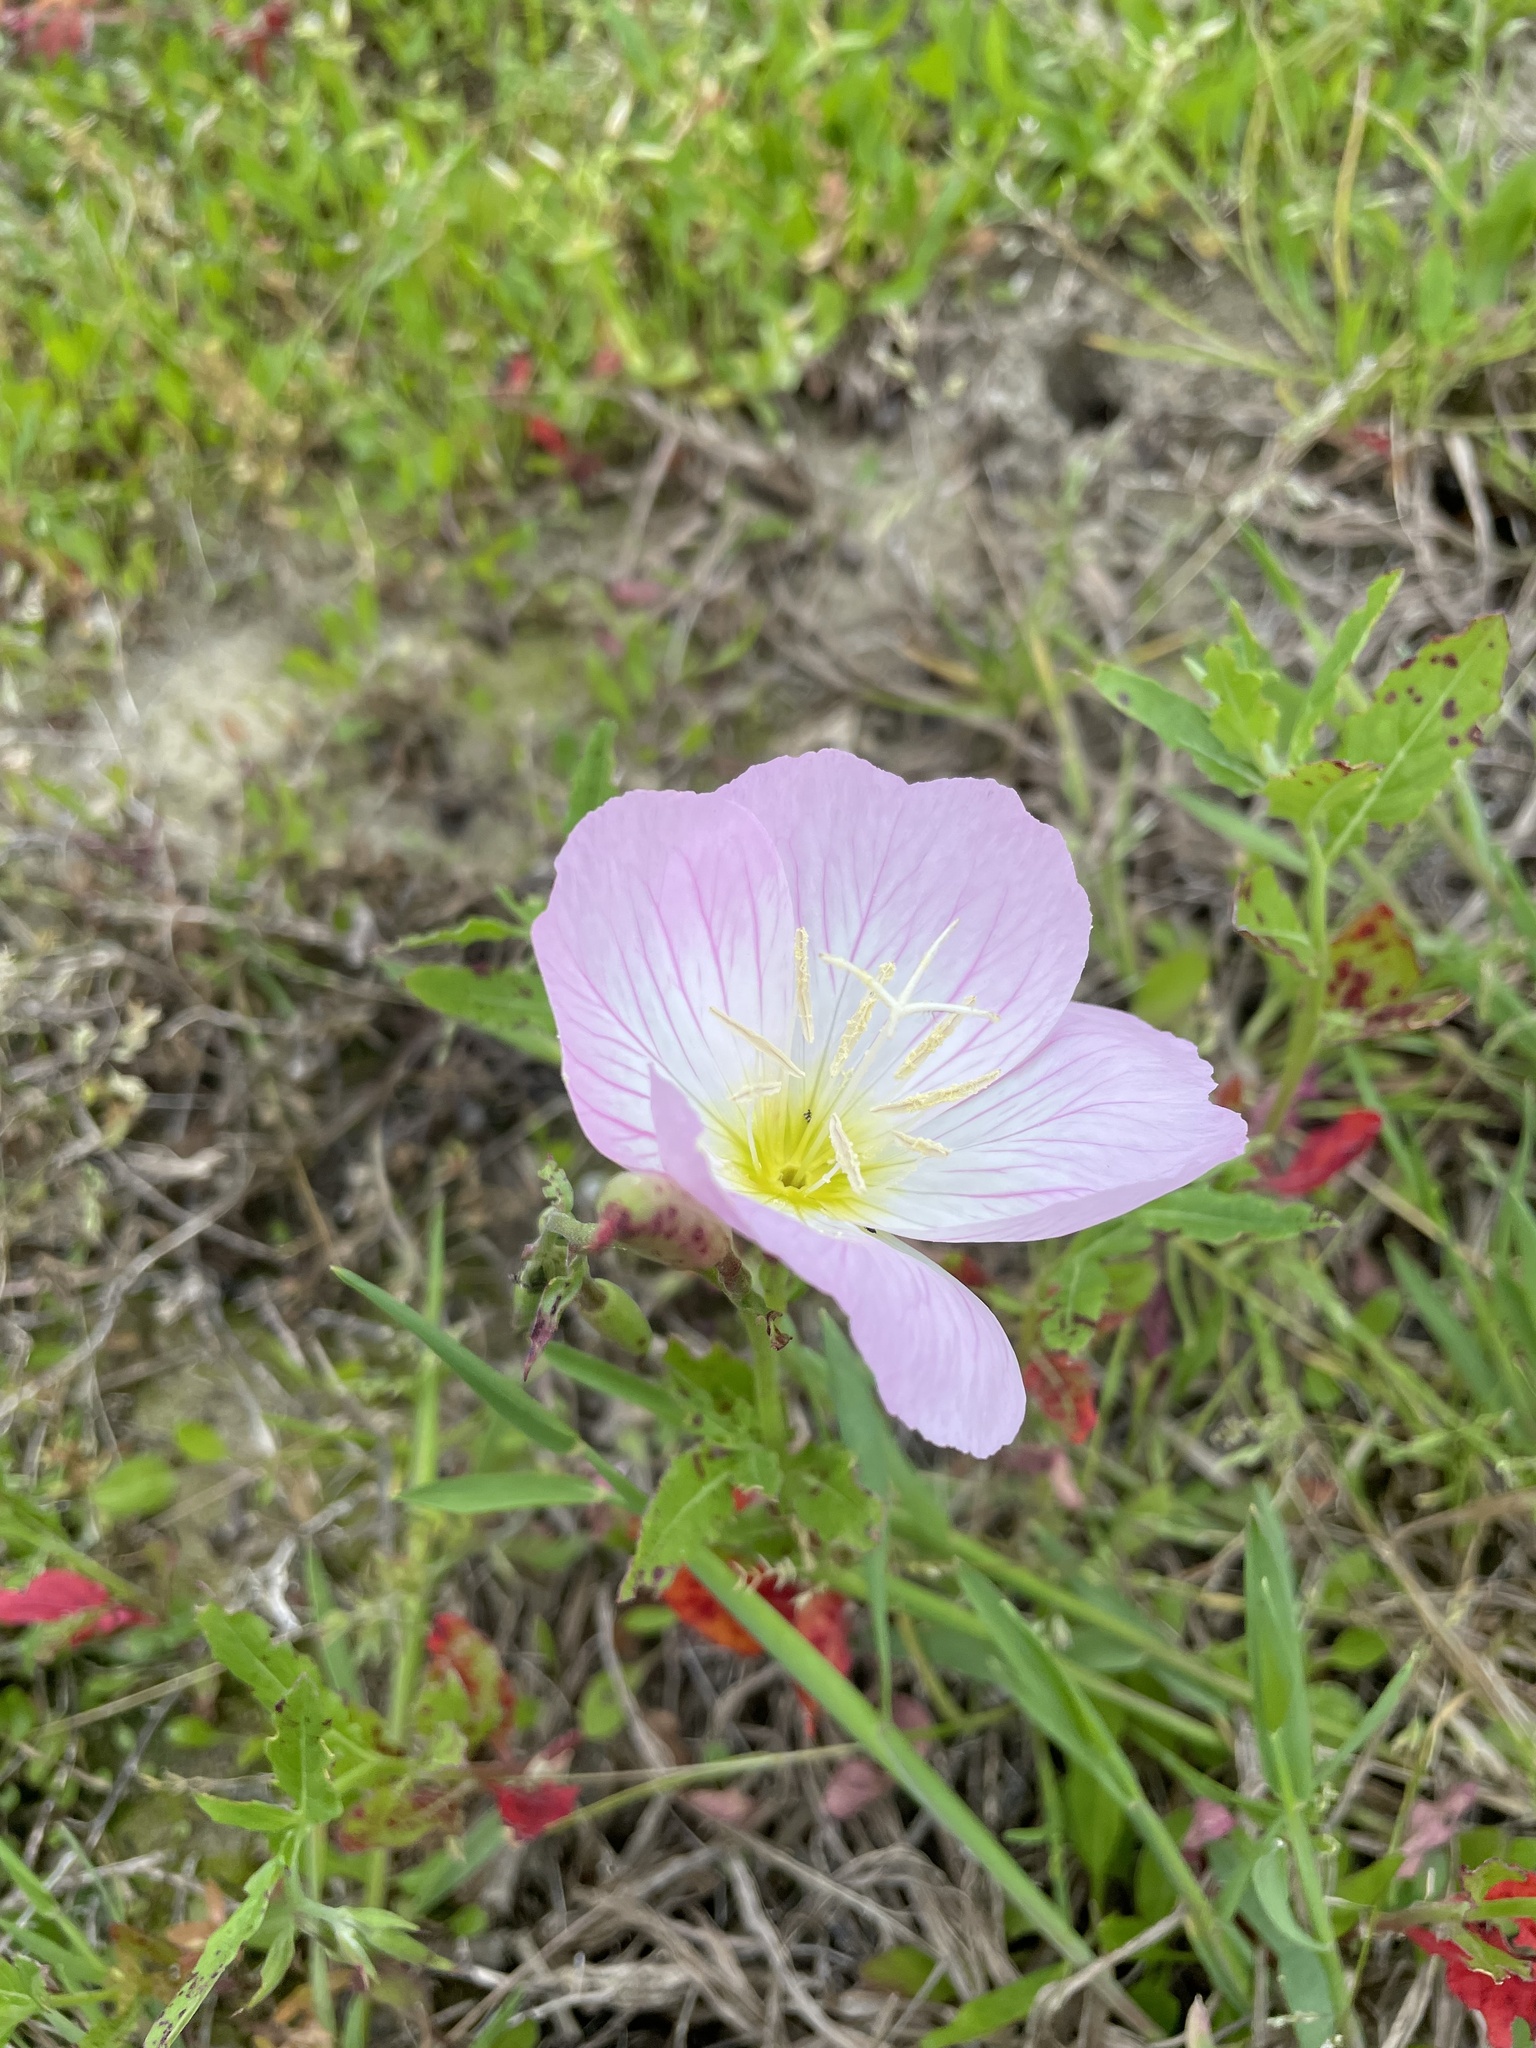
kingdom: Plantae
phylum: Tracheophyta
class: Magnoliopsida
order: Myrtales
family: Onagraceae
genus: Oenothera
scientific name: Oenothera speciosa
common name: White evening-primrose
